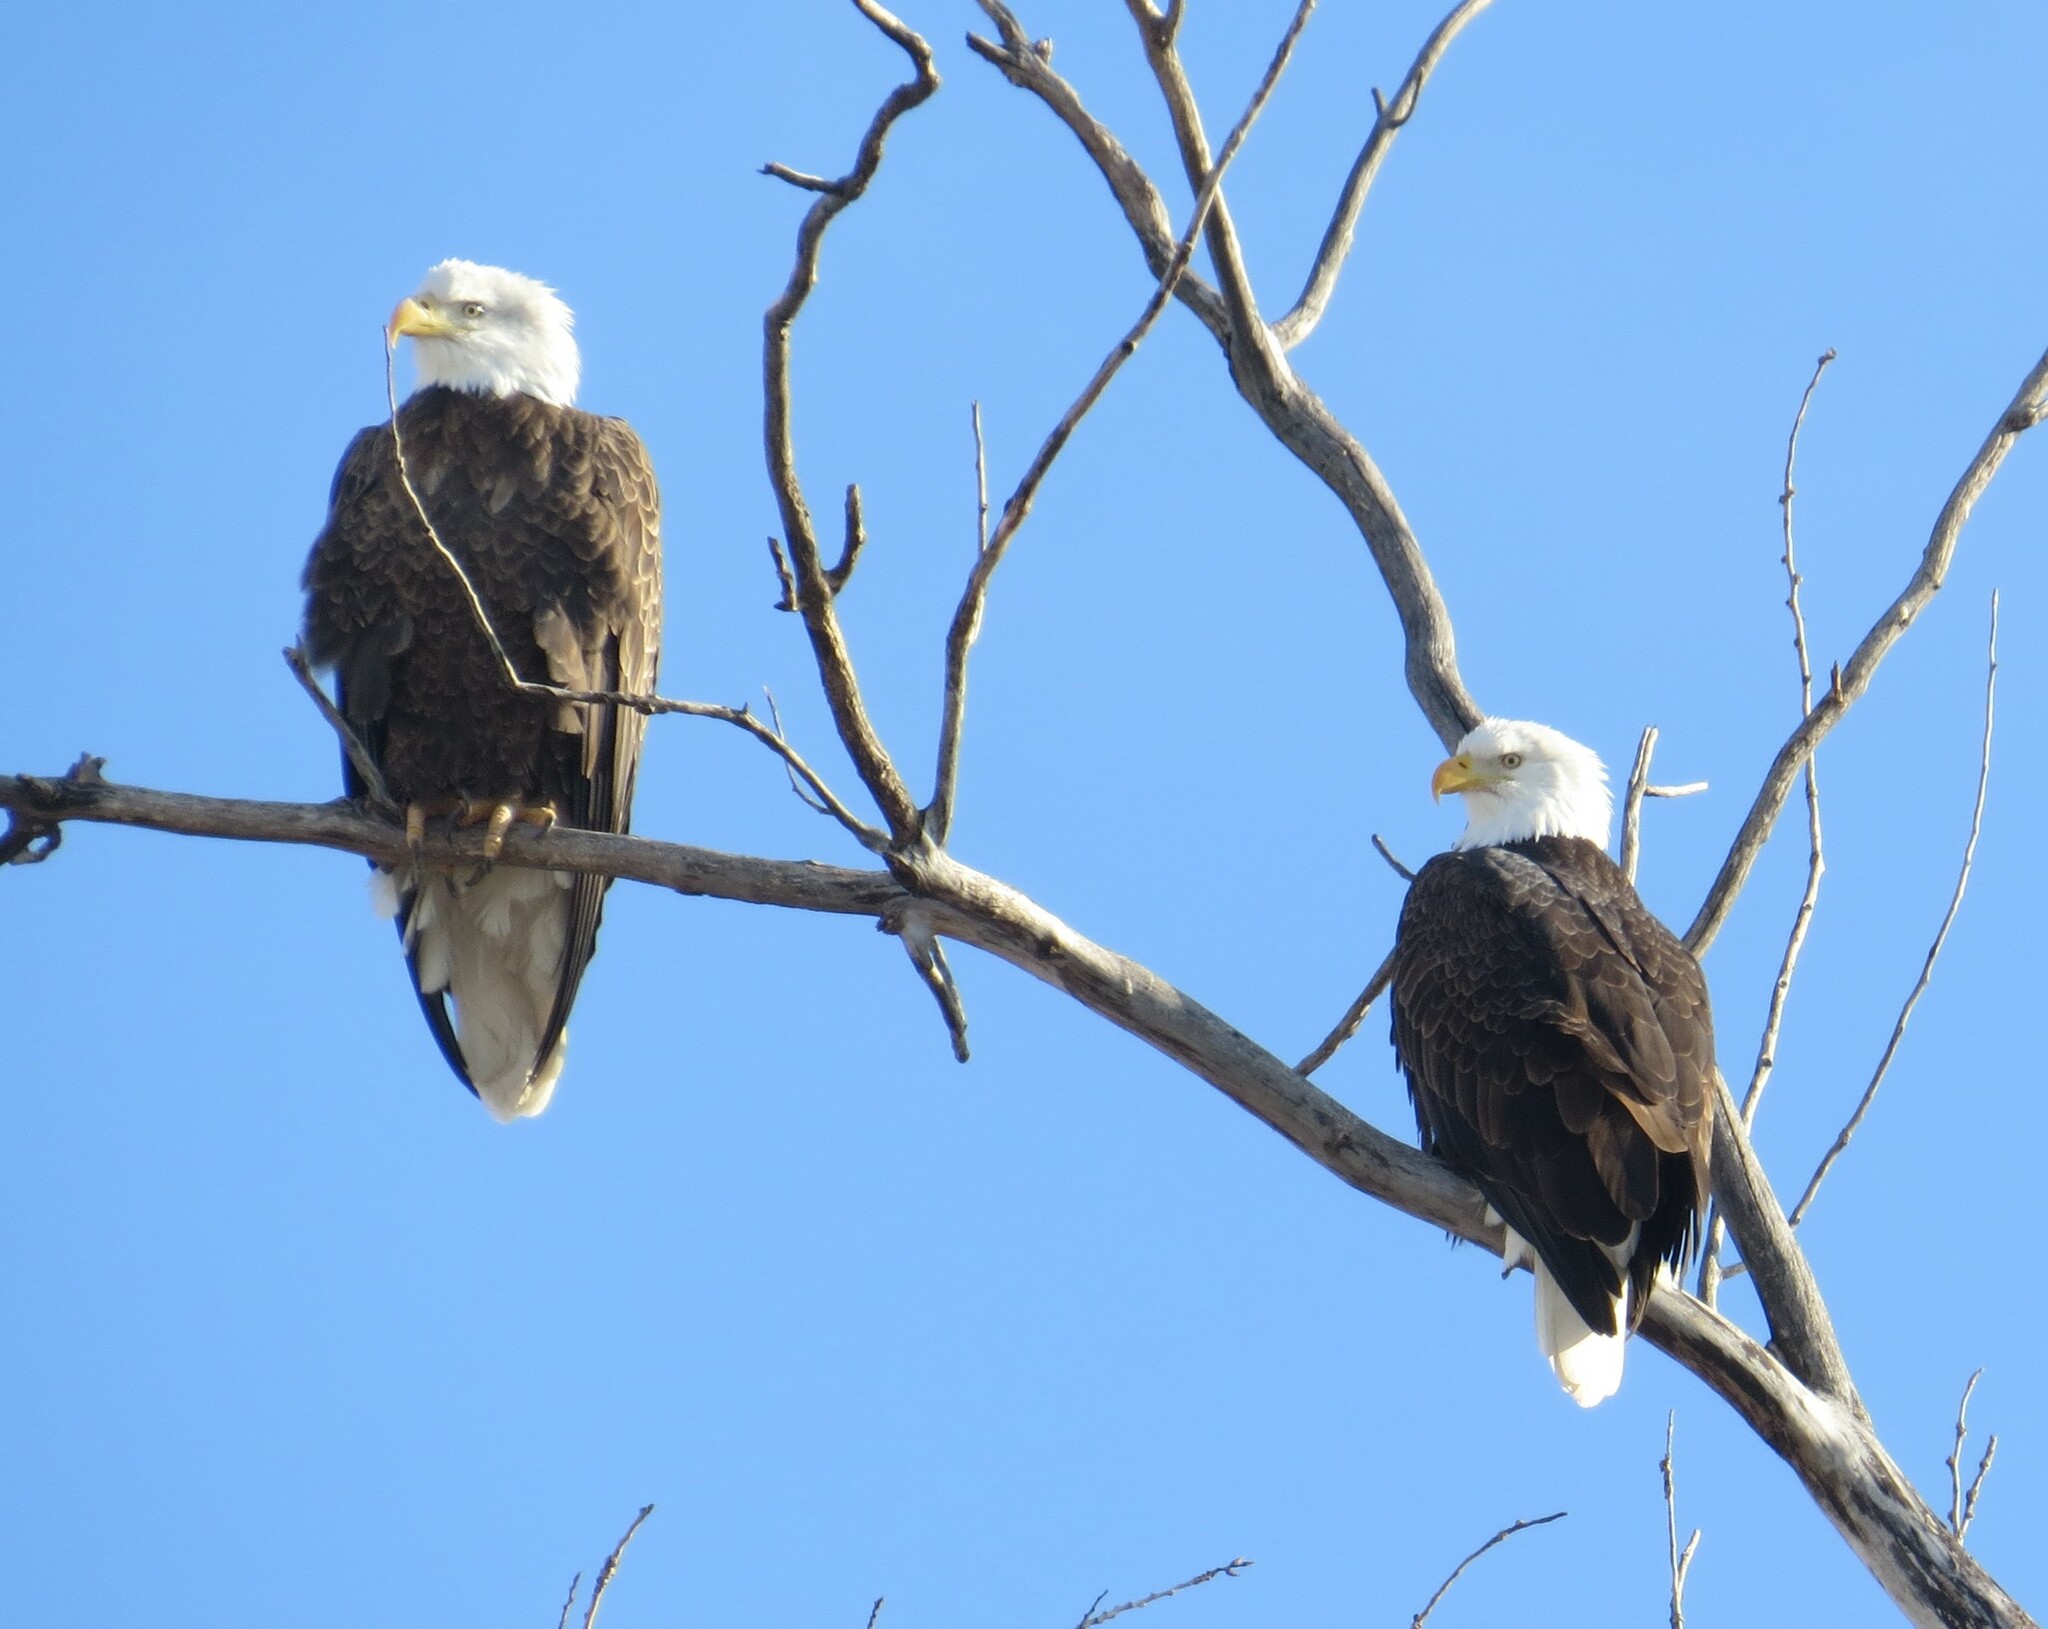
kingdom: Animalia
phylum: Chordata
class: Aves
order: Accipitriformes
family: Accipitridae
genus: Haliaeetus
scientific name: Haliaeetus leucocephalus
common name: Bald eagle
